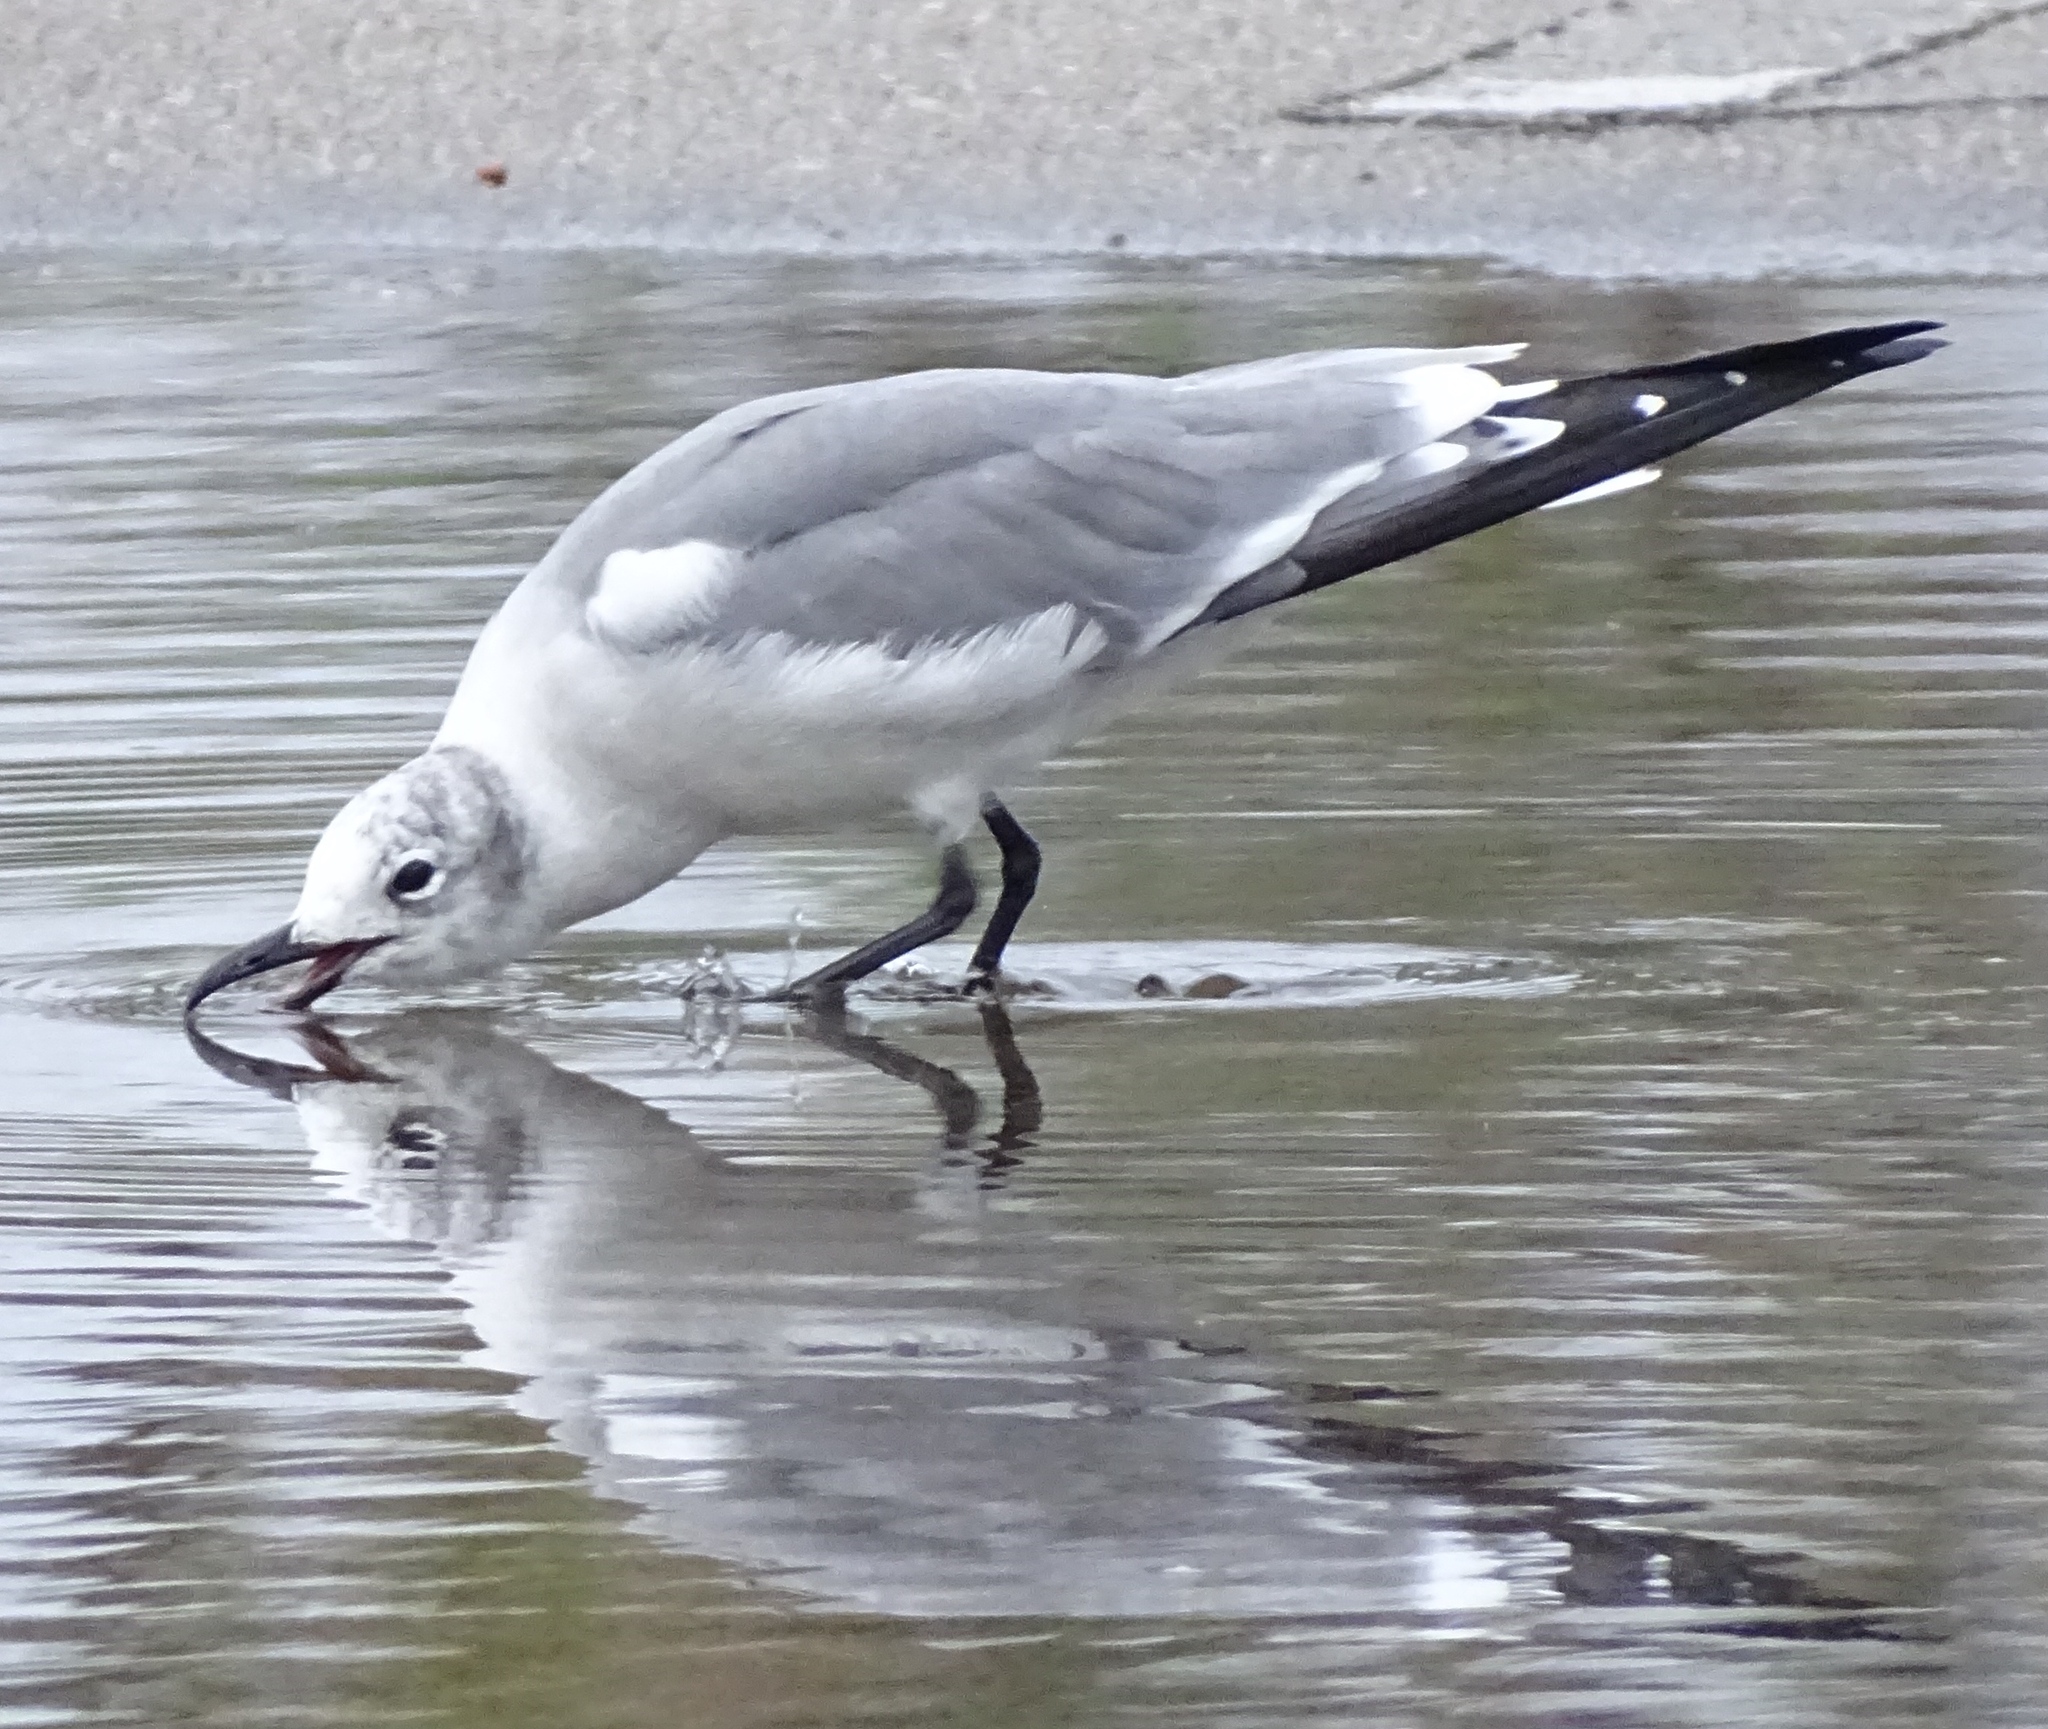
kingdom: Animalia
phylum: Chordata
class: Aves
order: Charadriiformes
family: Laridae
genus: Leucophaeus
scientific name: Leucophaeus atricilla
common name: Laughing gull
